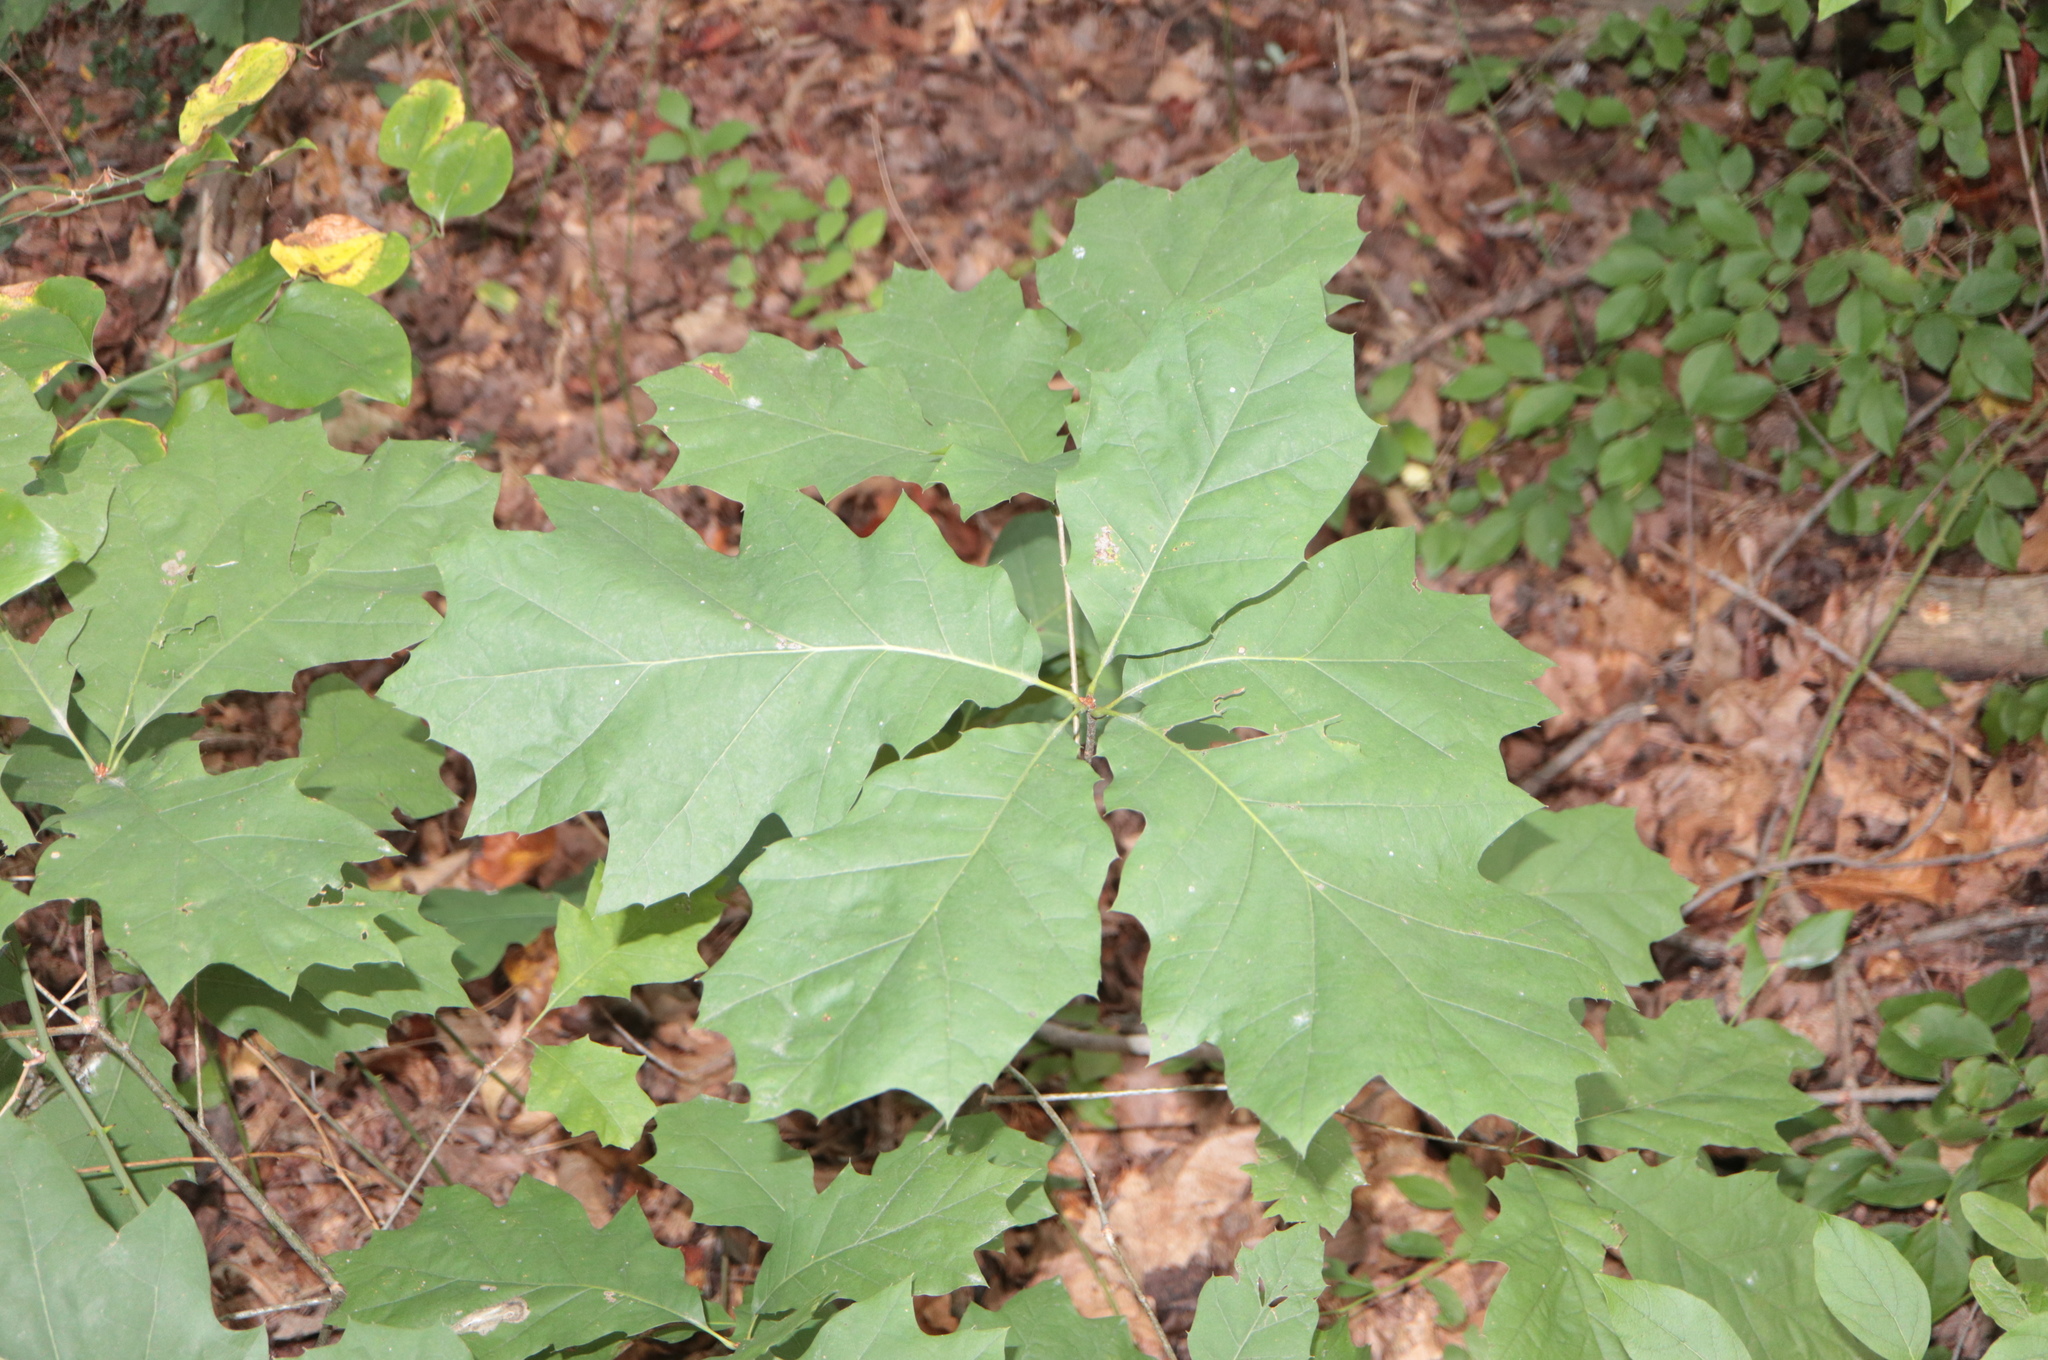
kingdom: Plantae
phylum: Tracheophyta
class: Magnoliopsida
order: Fagales
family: Fagaceae
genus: Quercus
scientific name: Quercus rubra
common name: Red oak
